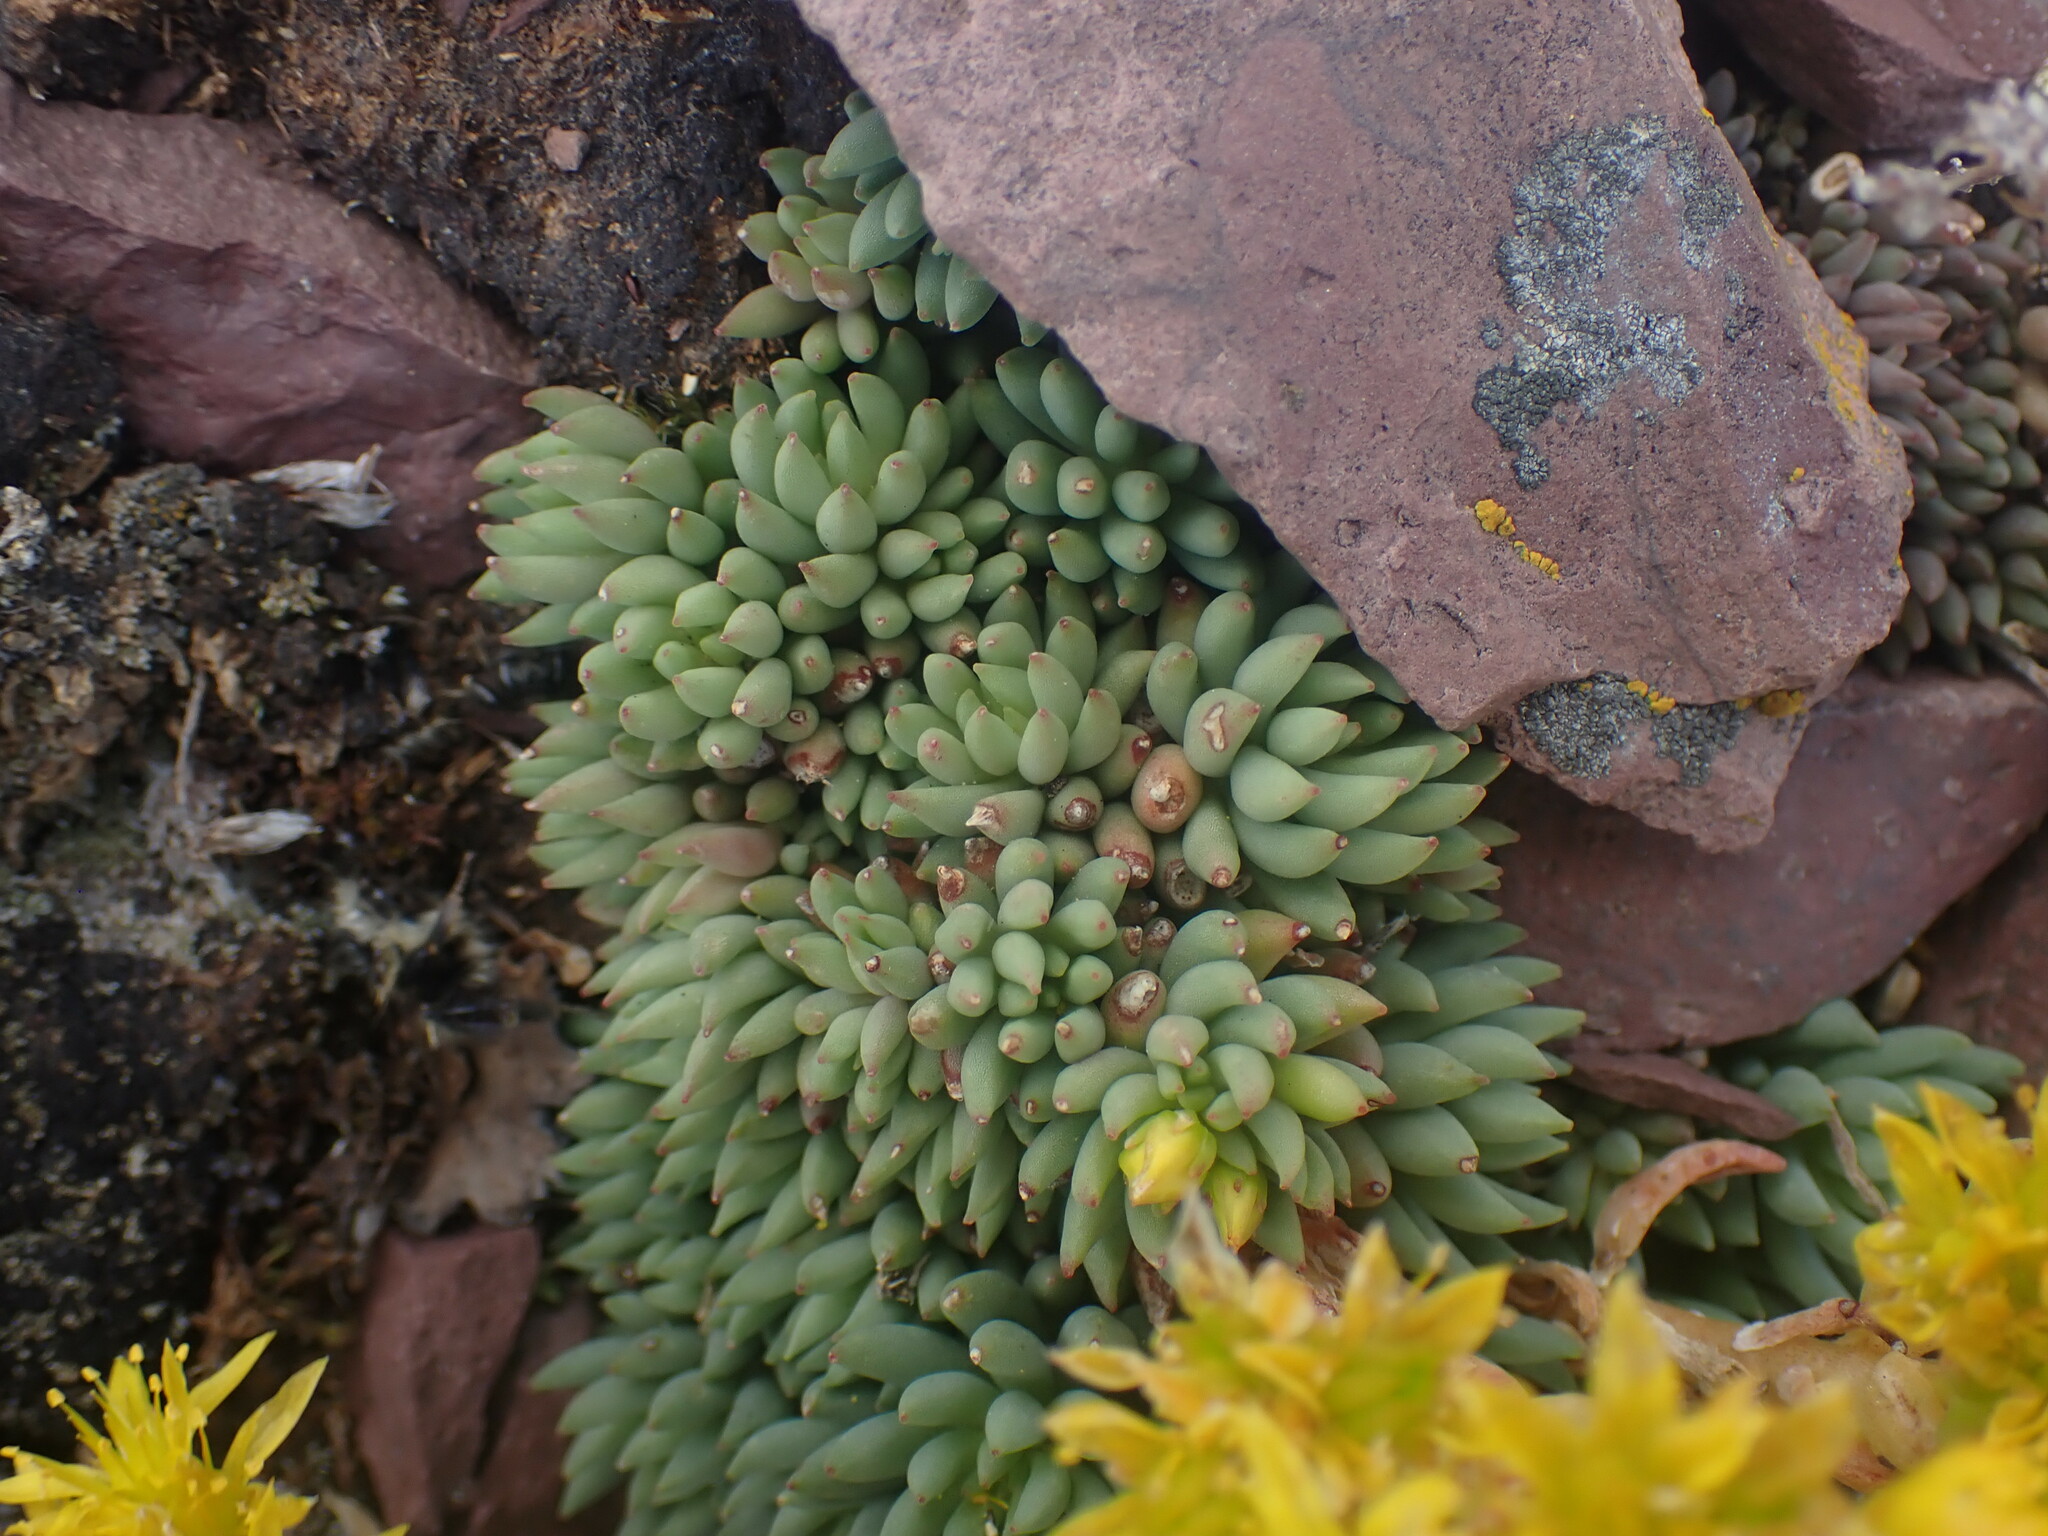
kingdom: Plantae
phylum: Tracheophyta
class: Magnoliopsida
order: Saxifragales
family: Crassulaceae
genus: Sedum
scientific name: Sedum lanceolatum
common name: Common stonecrop
